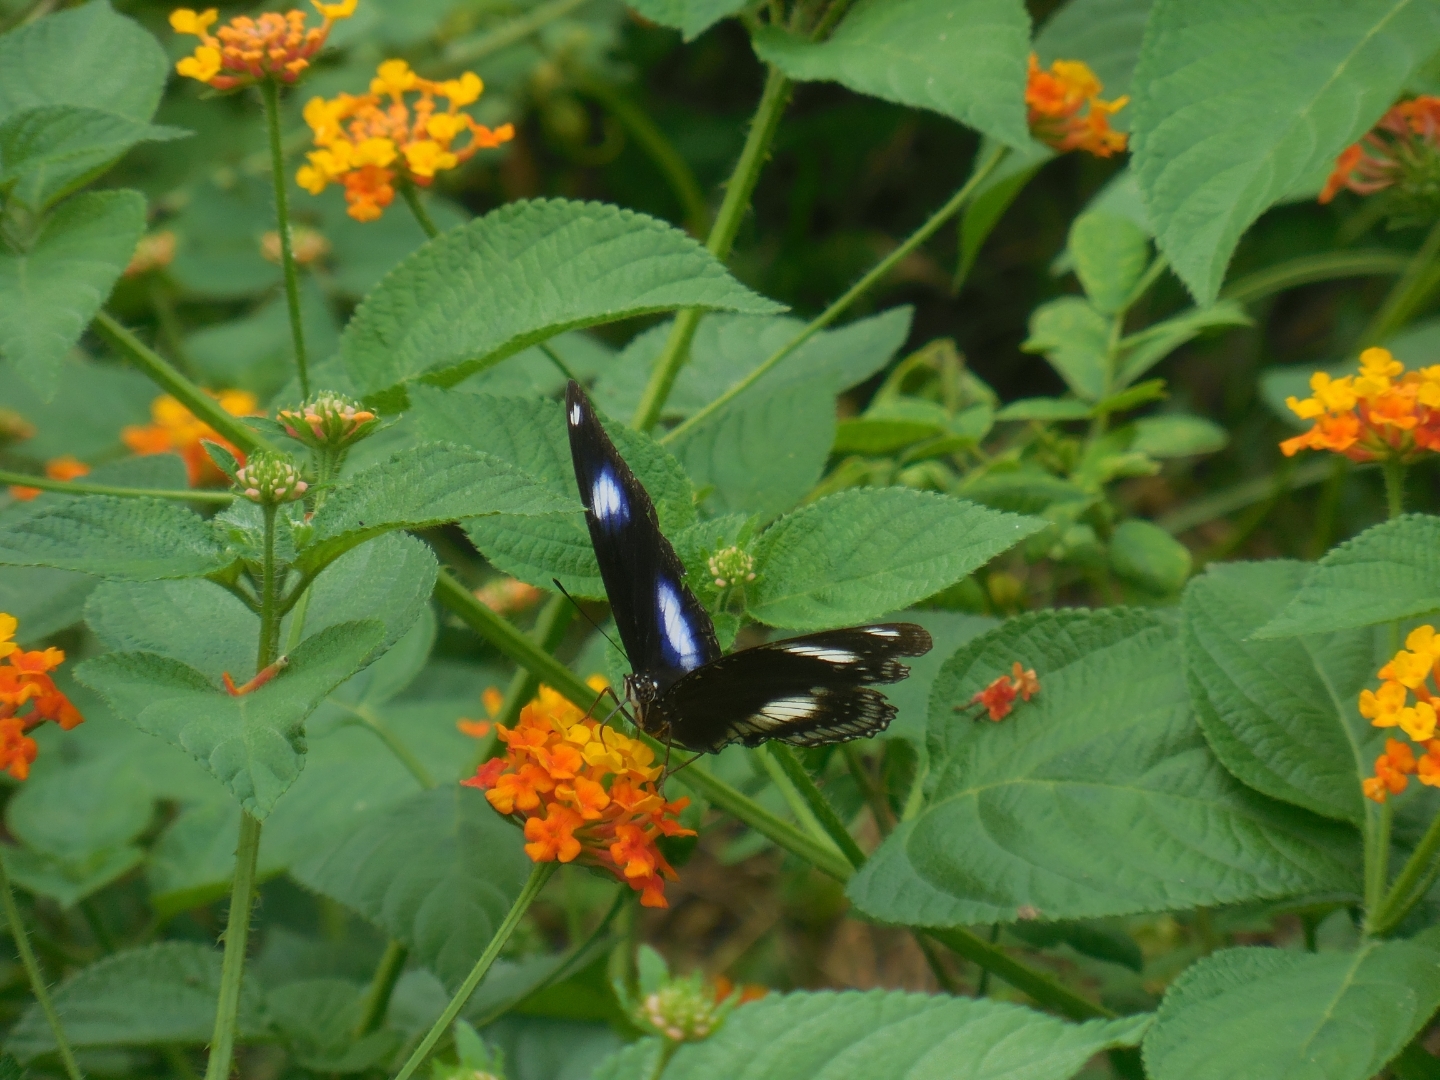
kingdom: Animalia
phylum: Arthropoda
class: Insecta
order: Lepidoptera
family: Nymphalidae
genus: Hypolimnas
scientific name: Hypolimnas bolina
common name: Great eggfly
